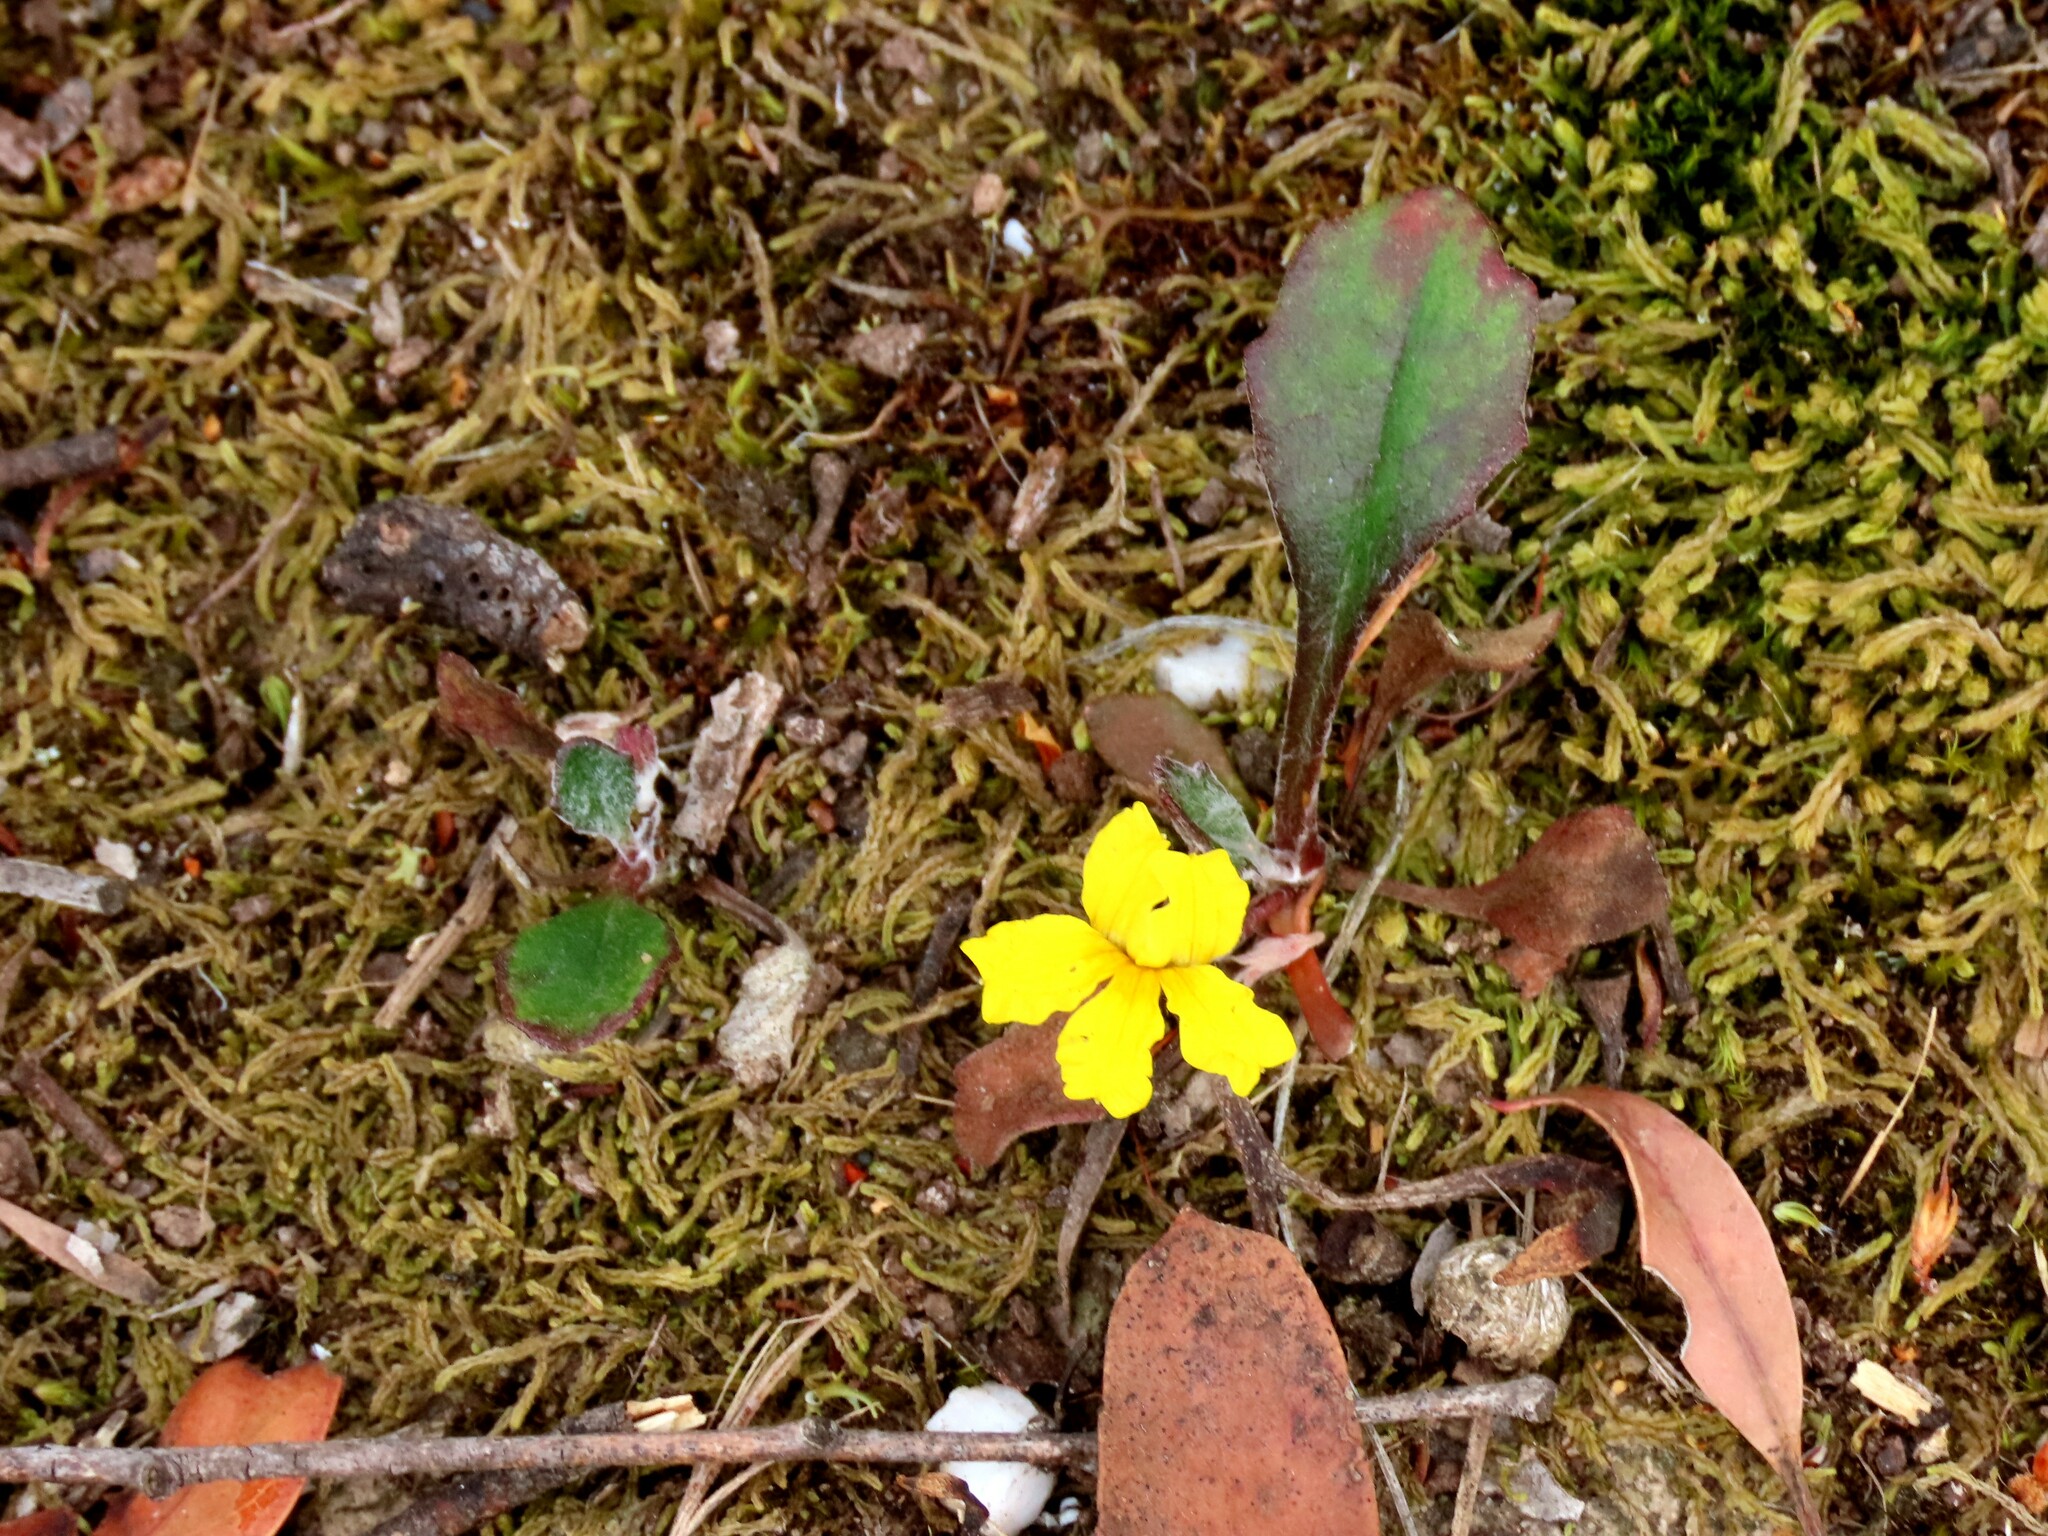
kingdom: Plantae
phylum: Tracheophyta
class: Magnoliopsida
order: Asterales
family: Goodeniaceae
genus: Goodenia
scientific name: Goodenia lanata
